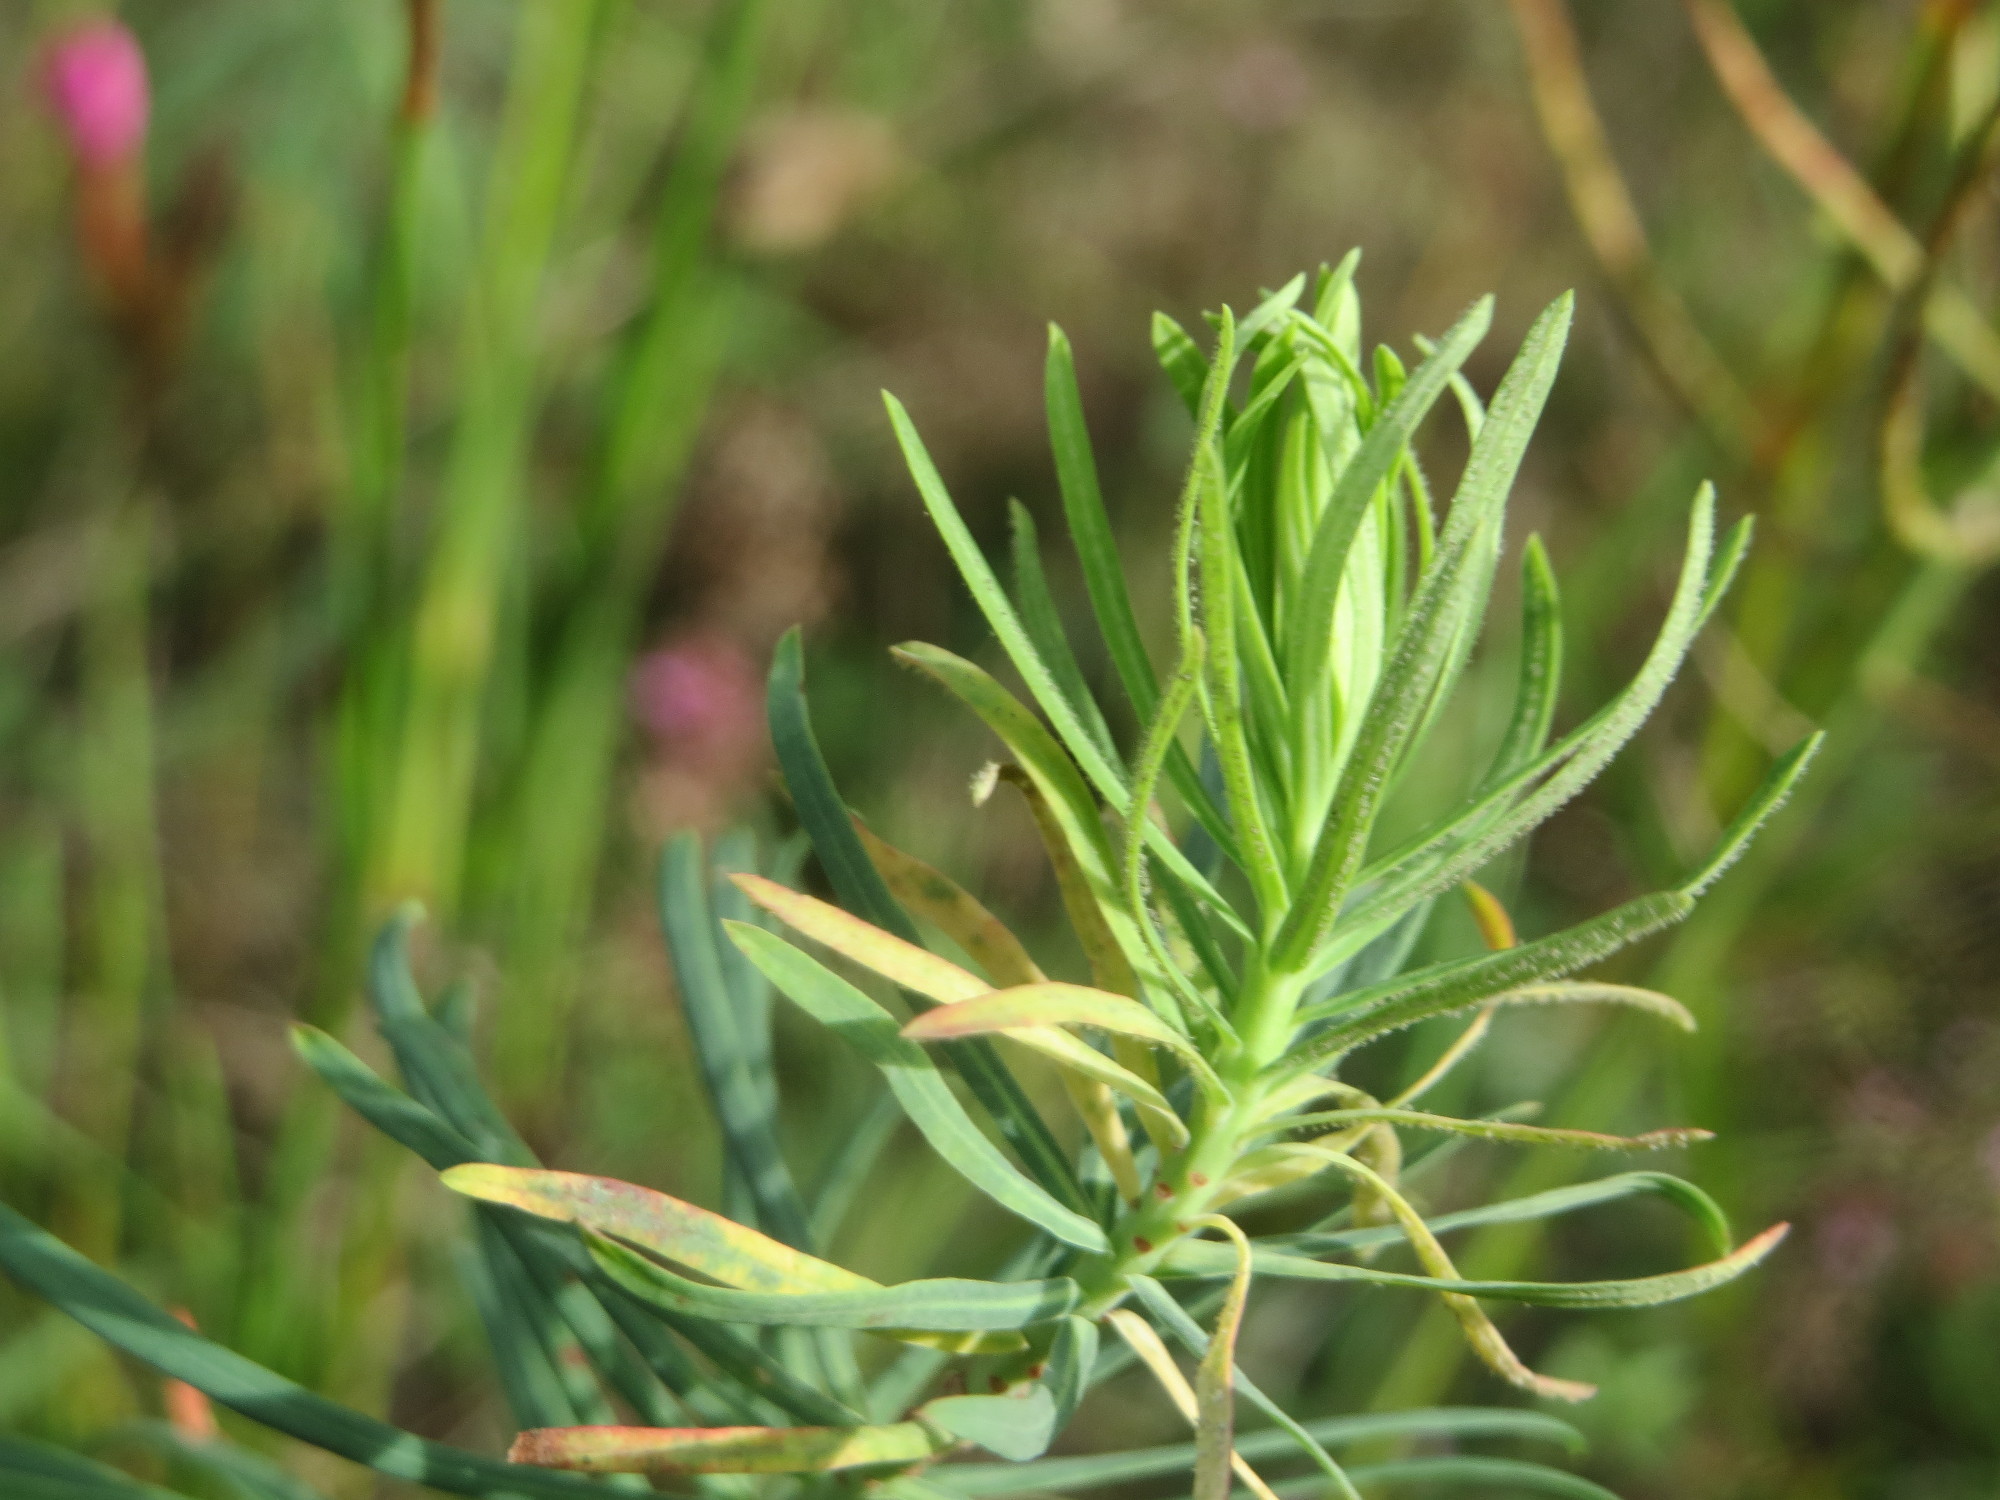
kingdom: Plantae
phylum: Tracheophyta
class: Magnoliopsida
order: Malpighiales
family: Euphorbiaceae
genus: Euphorbia
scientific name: Euphorbia cyparissias
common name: Cypress spurge
